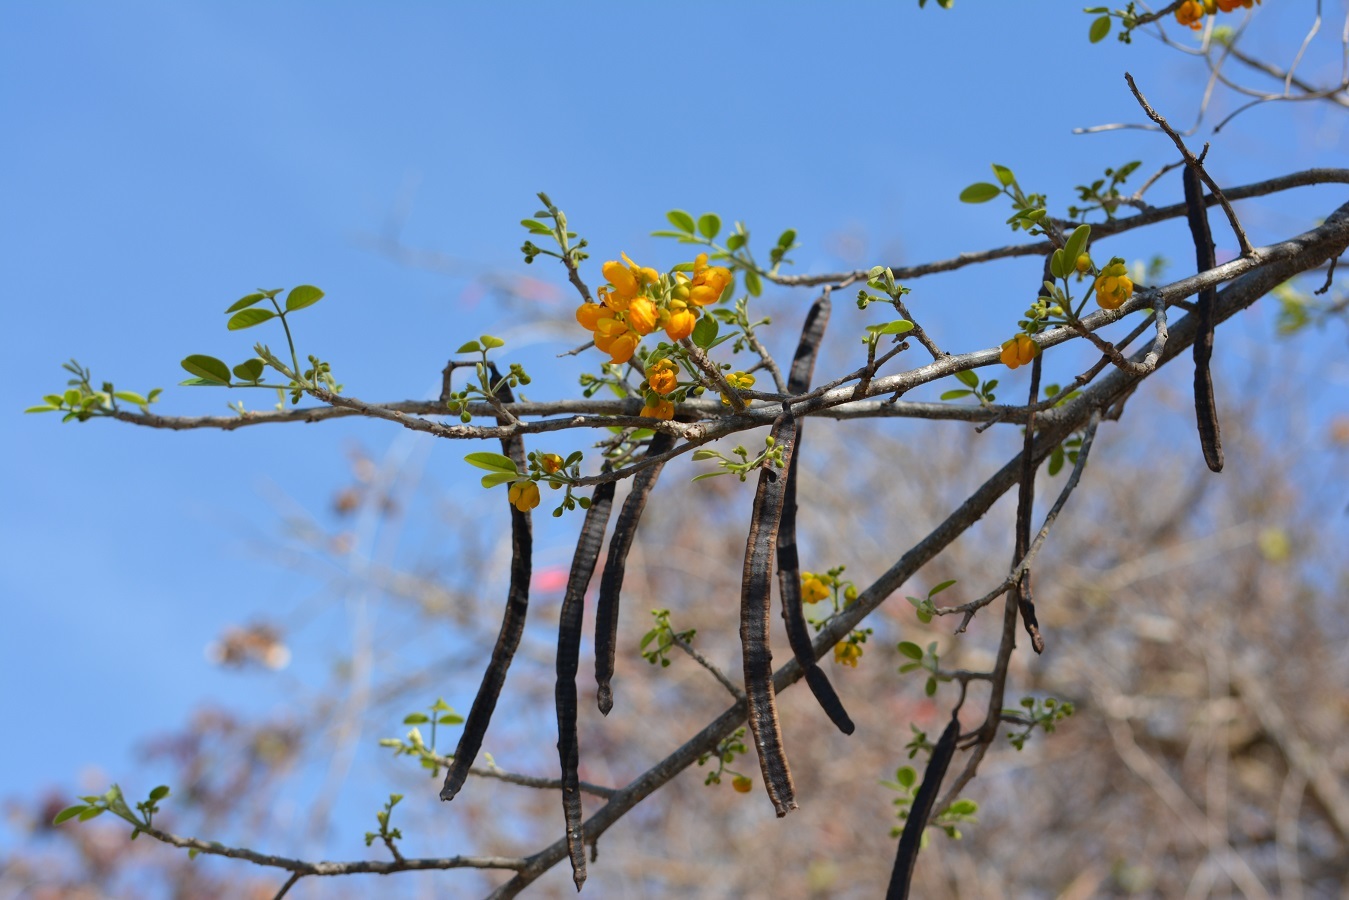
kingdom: Plantae
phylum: Tracheophyta
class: Magnoliopsida
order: Fabales
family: Fabaceae
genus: Senna
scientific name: Senna atomaria
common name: Flor de san jose
